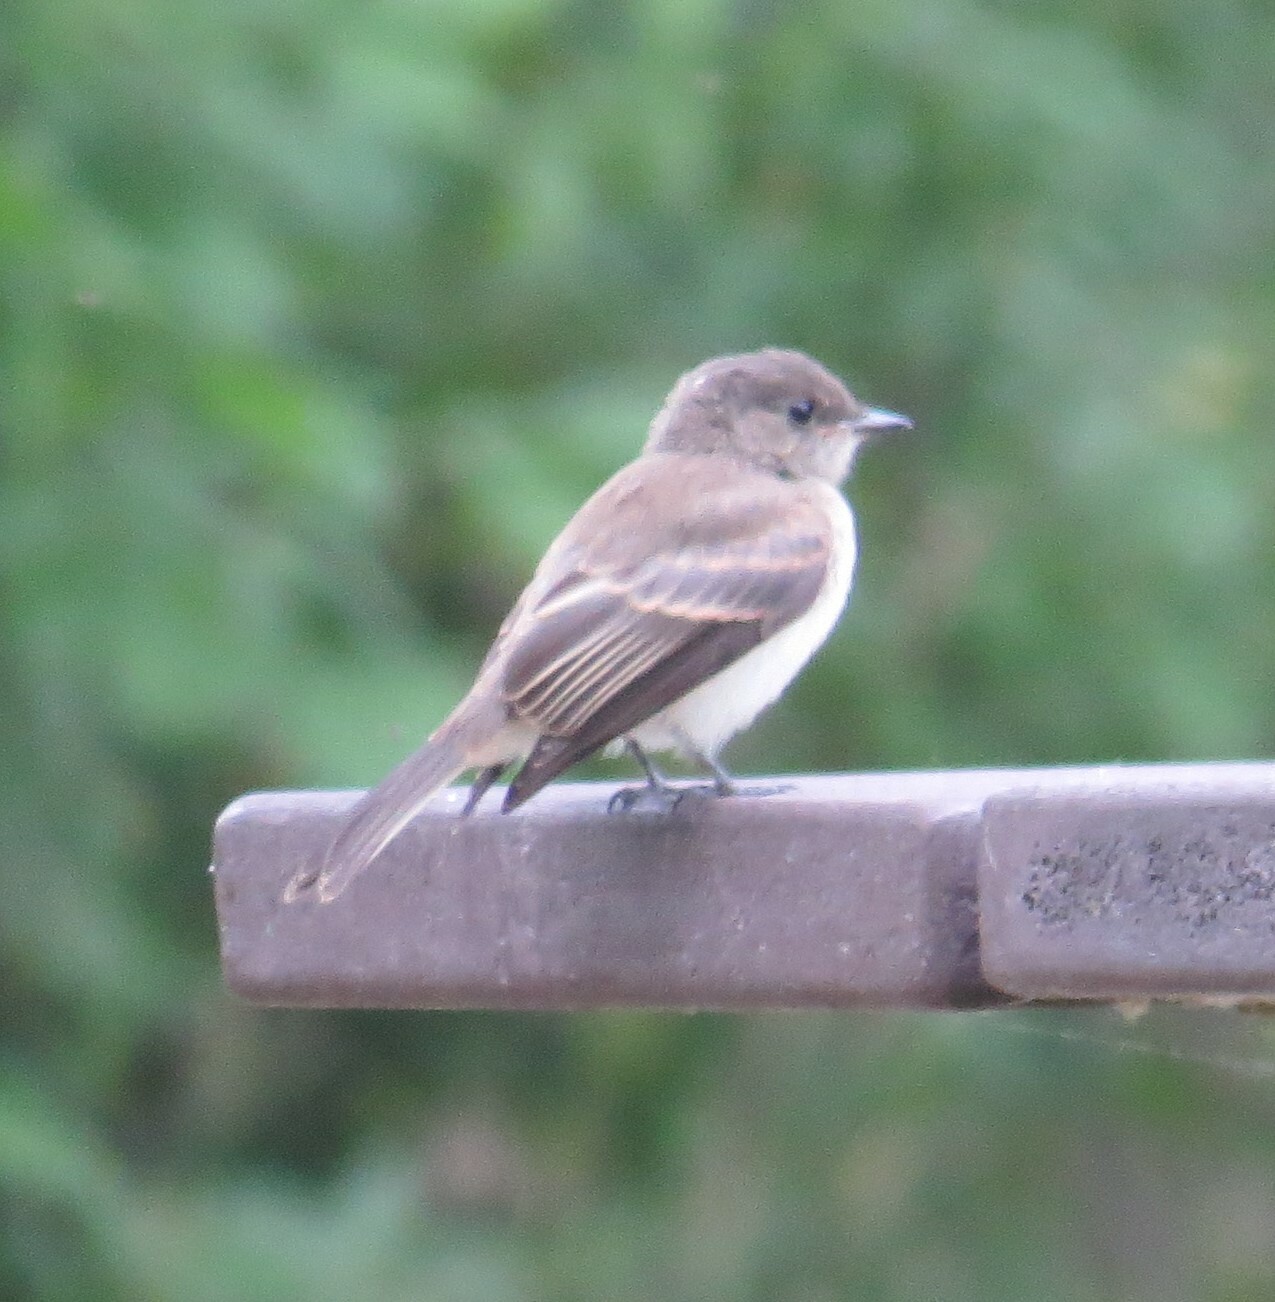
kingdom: Animalia
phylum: Chordata
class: Aves
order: Passeriformes
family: Tyrannidae
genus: Sayornis
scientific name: Sayornis phoebe
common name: Eastern phoebe
